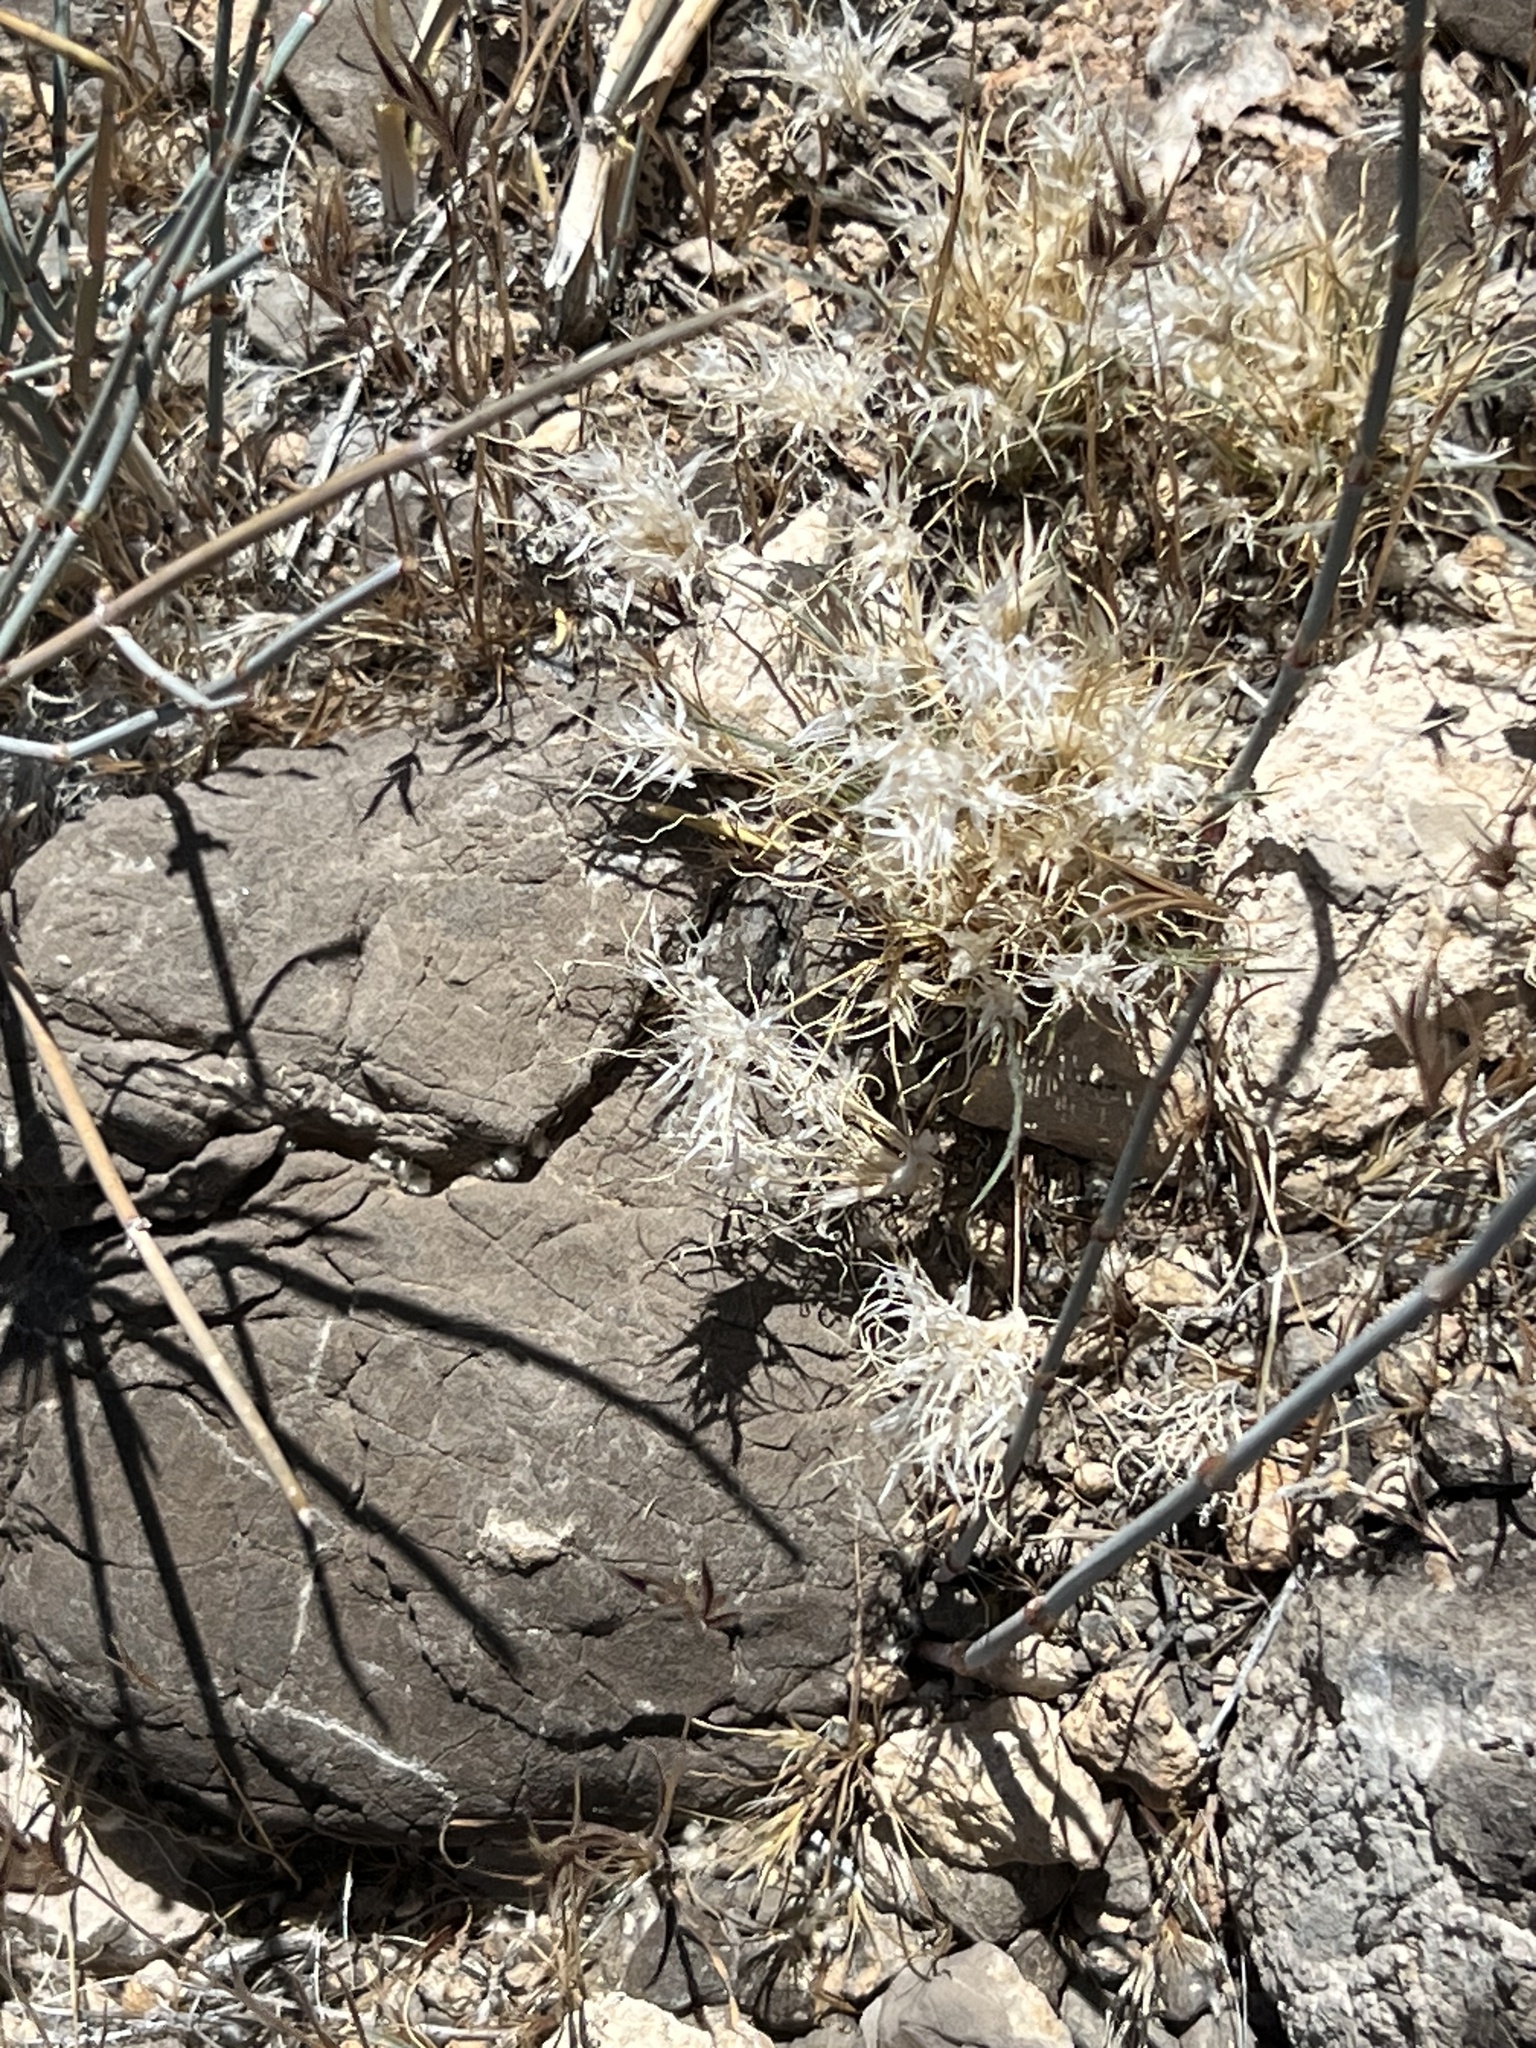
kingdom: Plantae
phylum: Tracheophyta
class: Liliopsida
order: Poales
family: Poaceae
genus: Dasyochloa
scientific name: Dasyochloa pulchella
